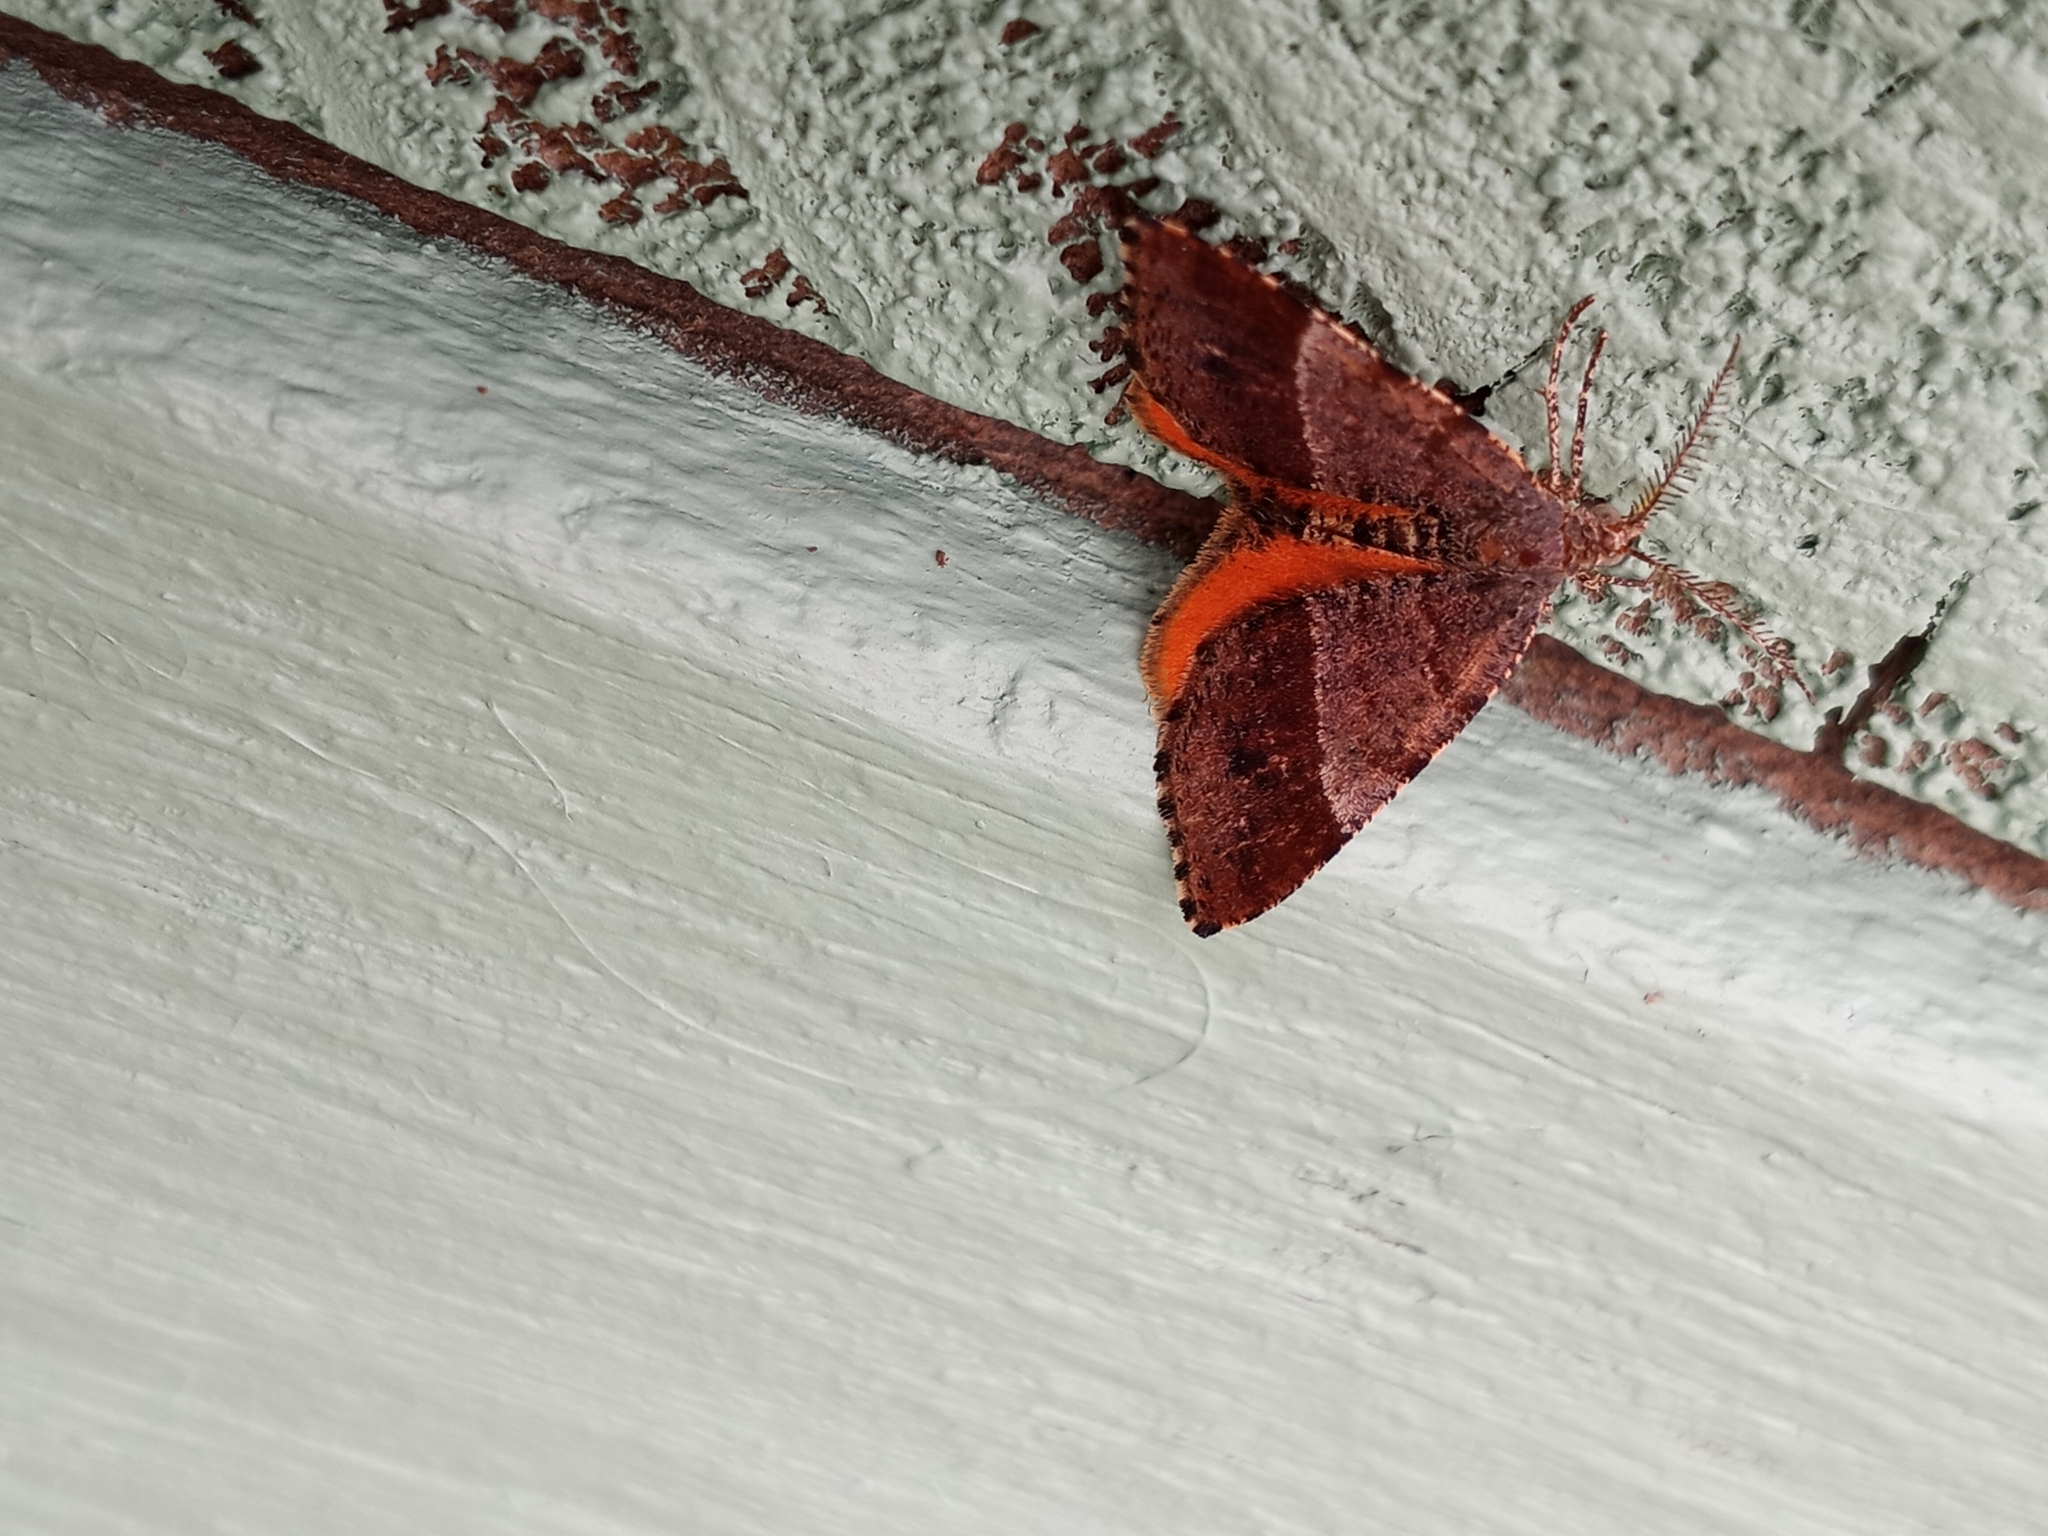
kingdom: Animalia
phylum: Arthropoda
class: Insecta
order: Lepidoptera
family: Geometridae
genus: Mellilla
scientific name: Mellilla xanthometata
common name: Orange wing moth
